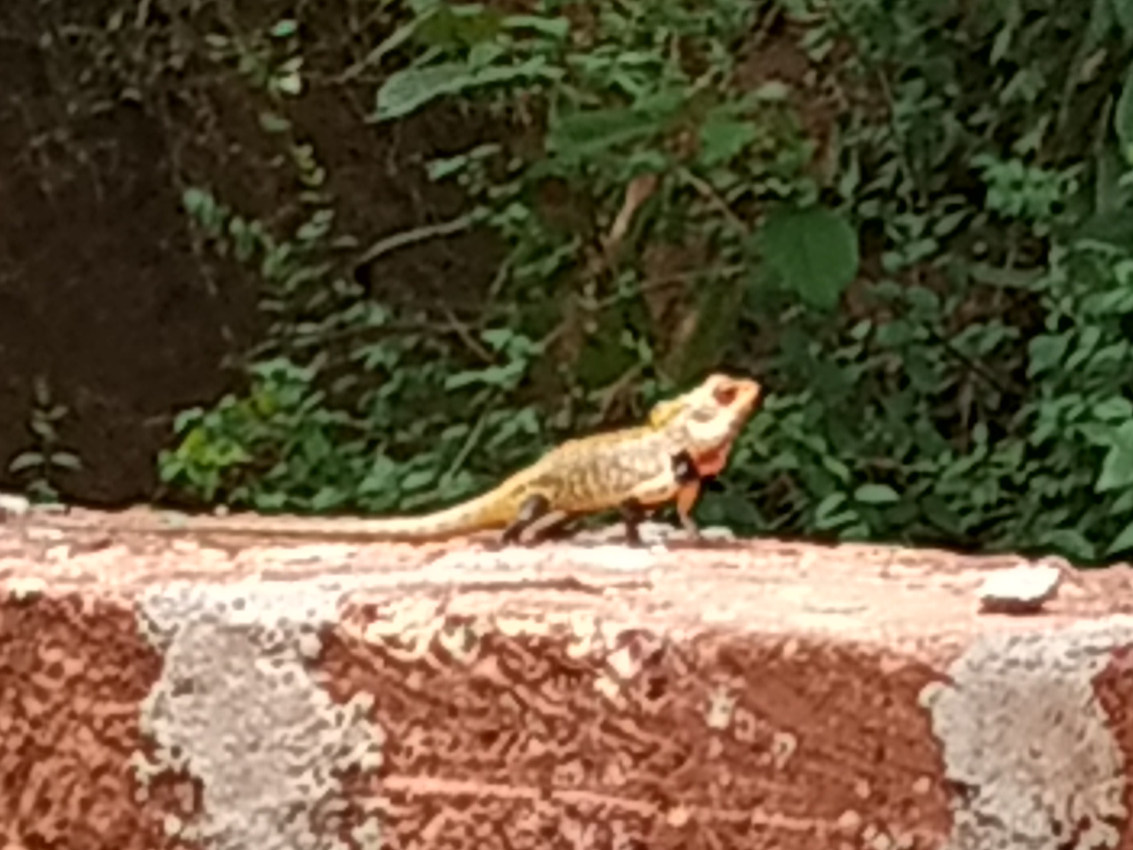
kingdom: Animalia
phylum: Chordata
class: Squamata
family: Agamidae
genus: Calotes
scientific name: Calotes versicolor
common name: Oriental garden lizard
